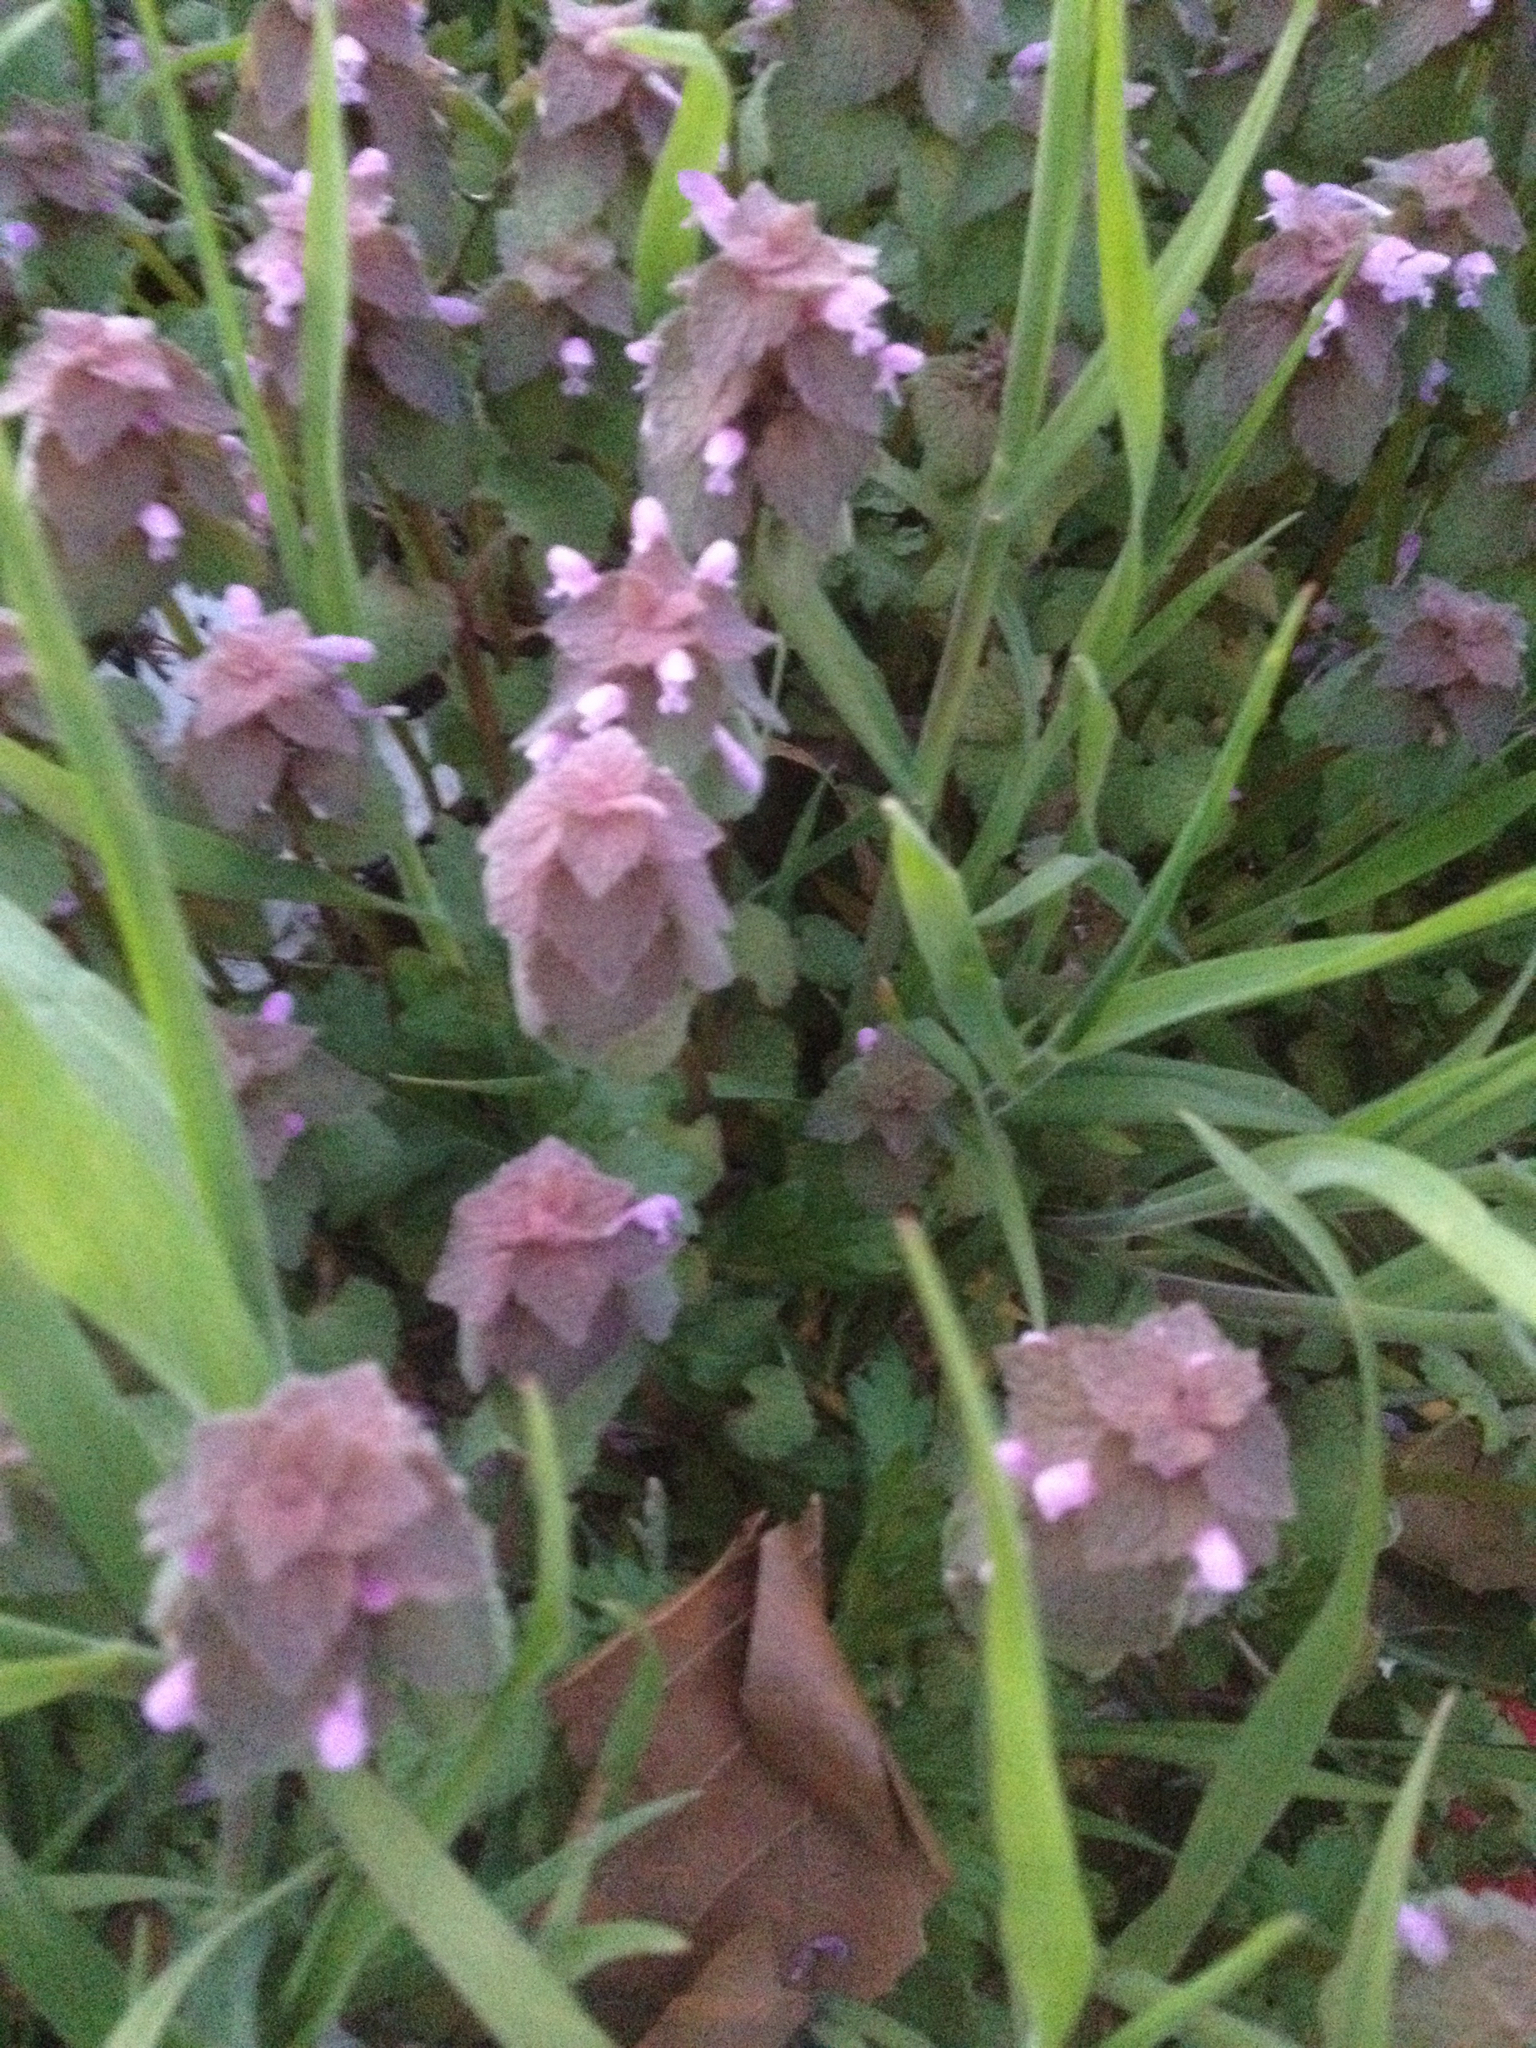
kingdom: Plantae
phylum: Tracheophyta
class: Magnoliopsida
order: Lamiales
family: Lamiaceae
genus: Lamium
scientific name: Lamium purpureum
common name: Red dead-nettle
